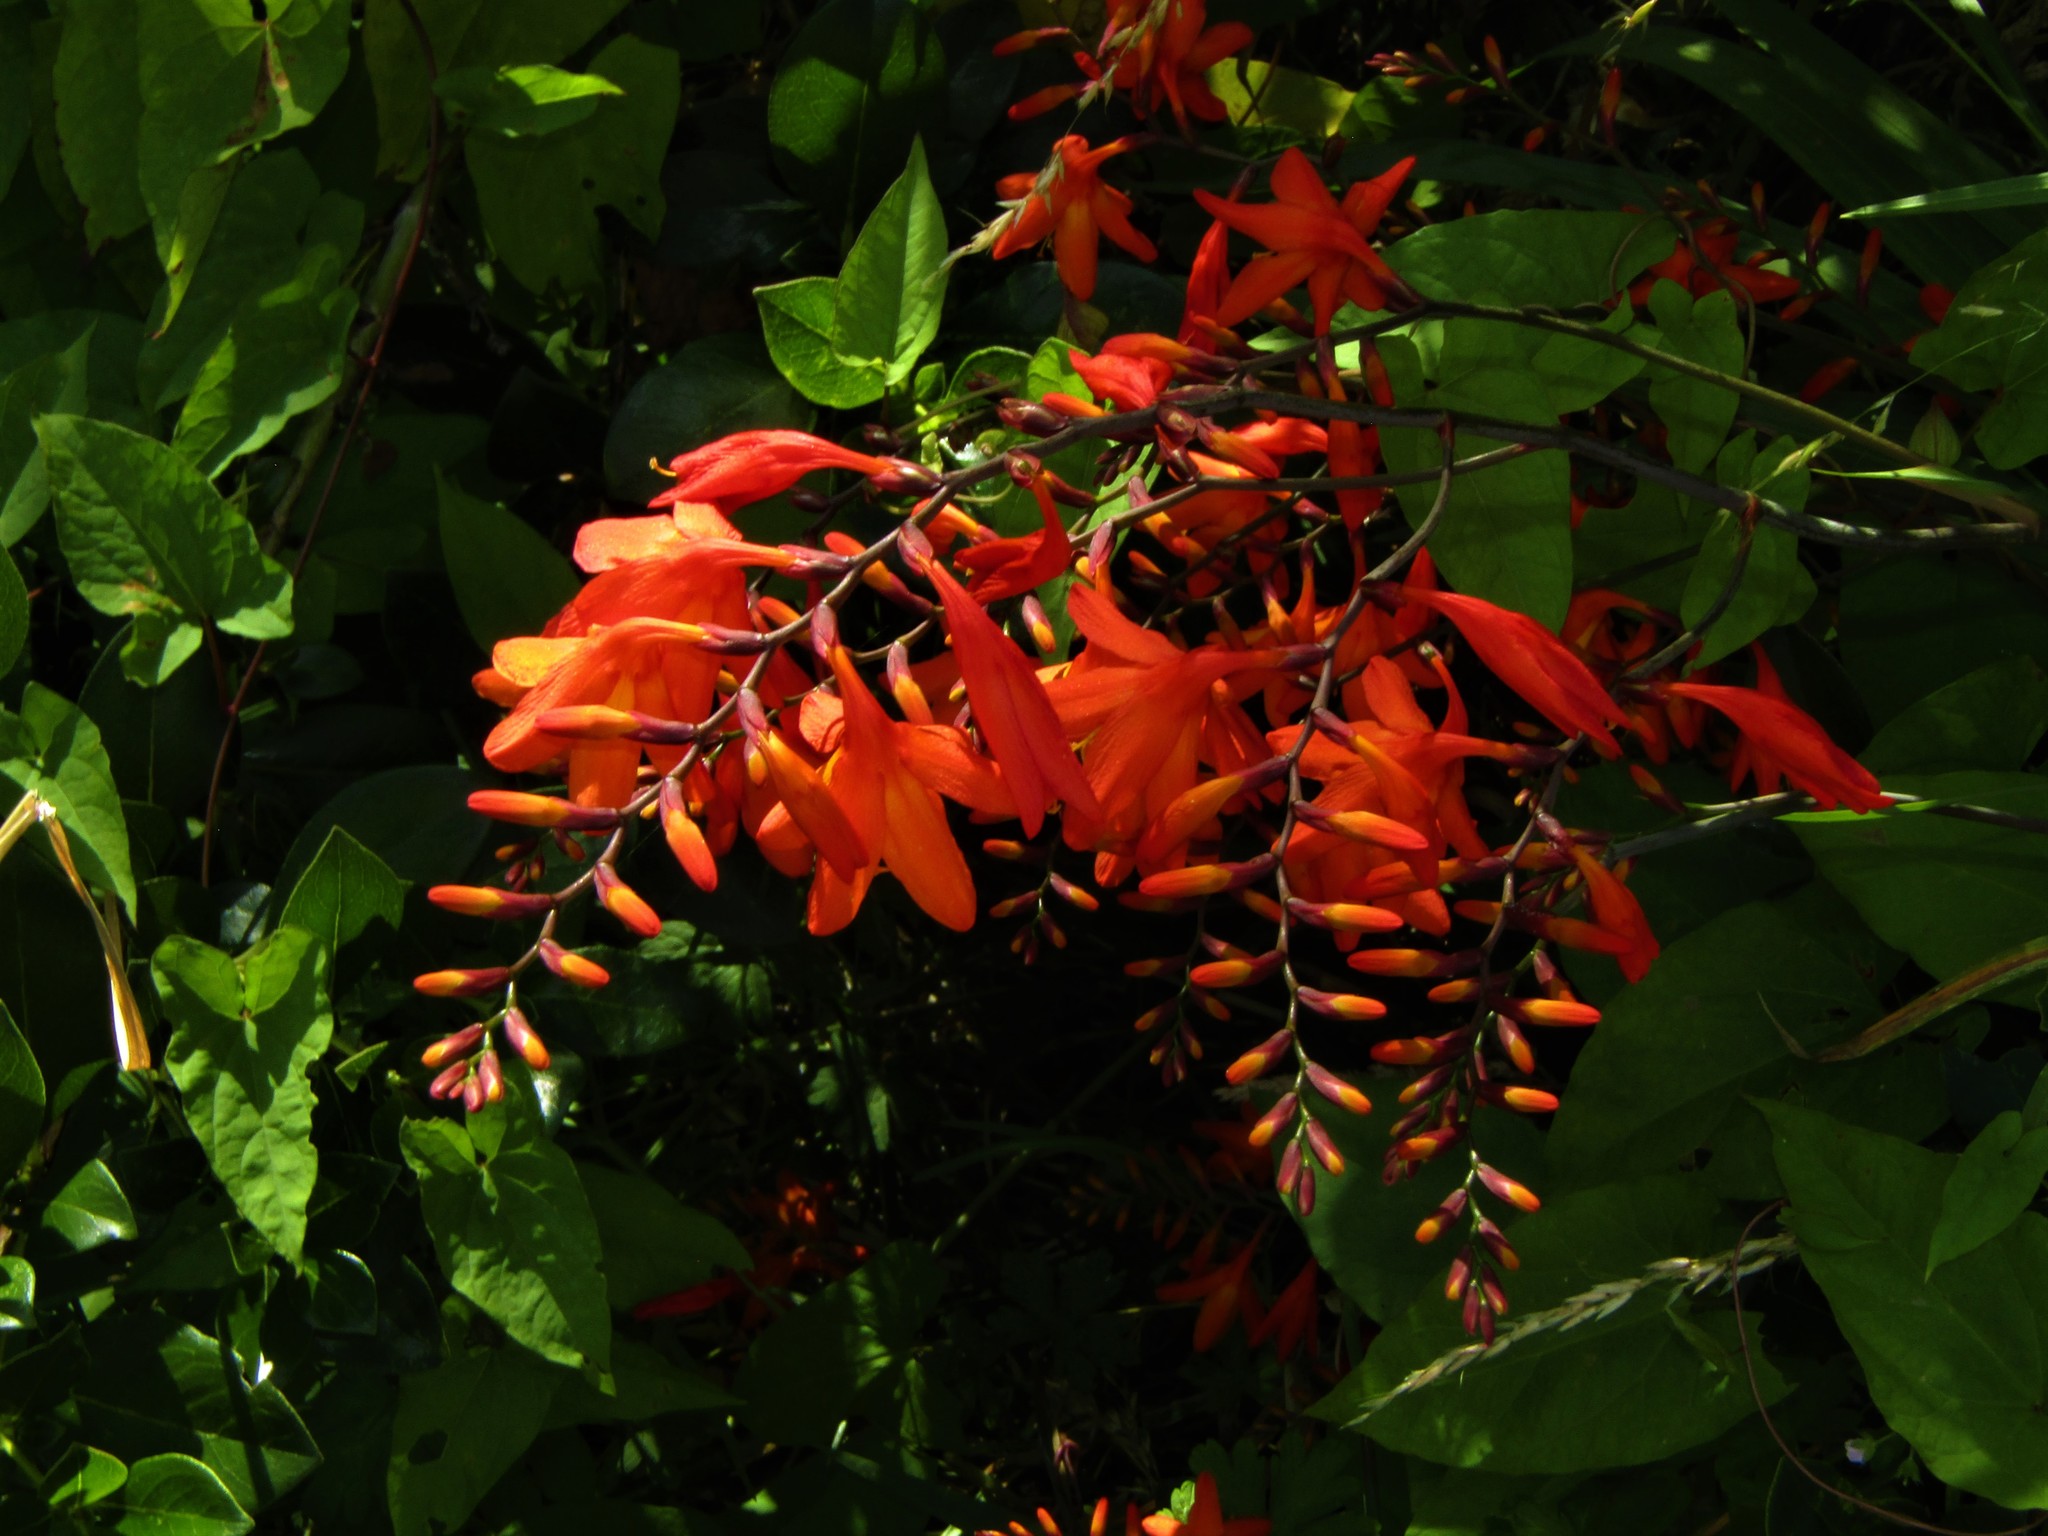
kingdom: Plantae
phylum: Tracheophyta
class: Liliopsida
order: Asparagales
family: Iridaceae
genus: Crocosmia
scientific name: Crocosmia crocosmiiflora
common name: Montbretia
